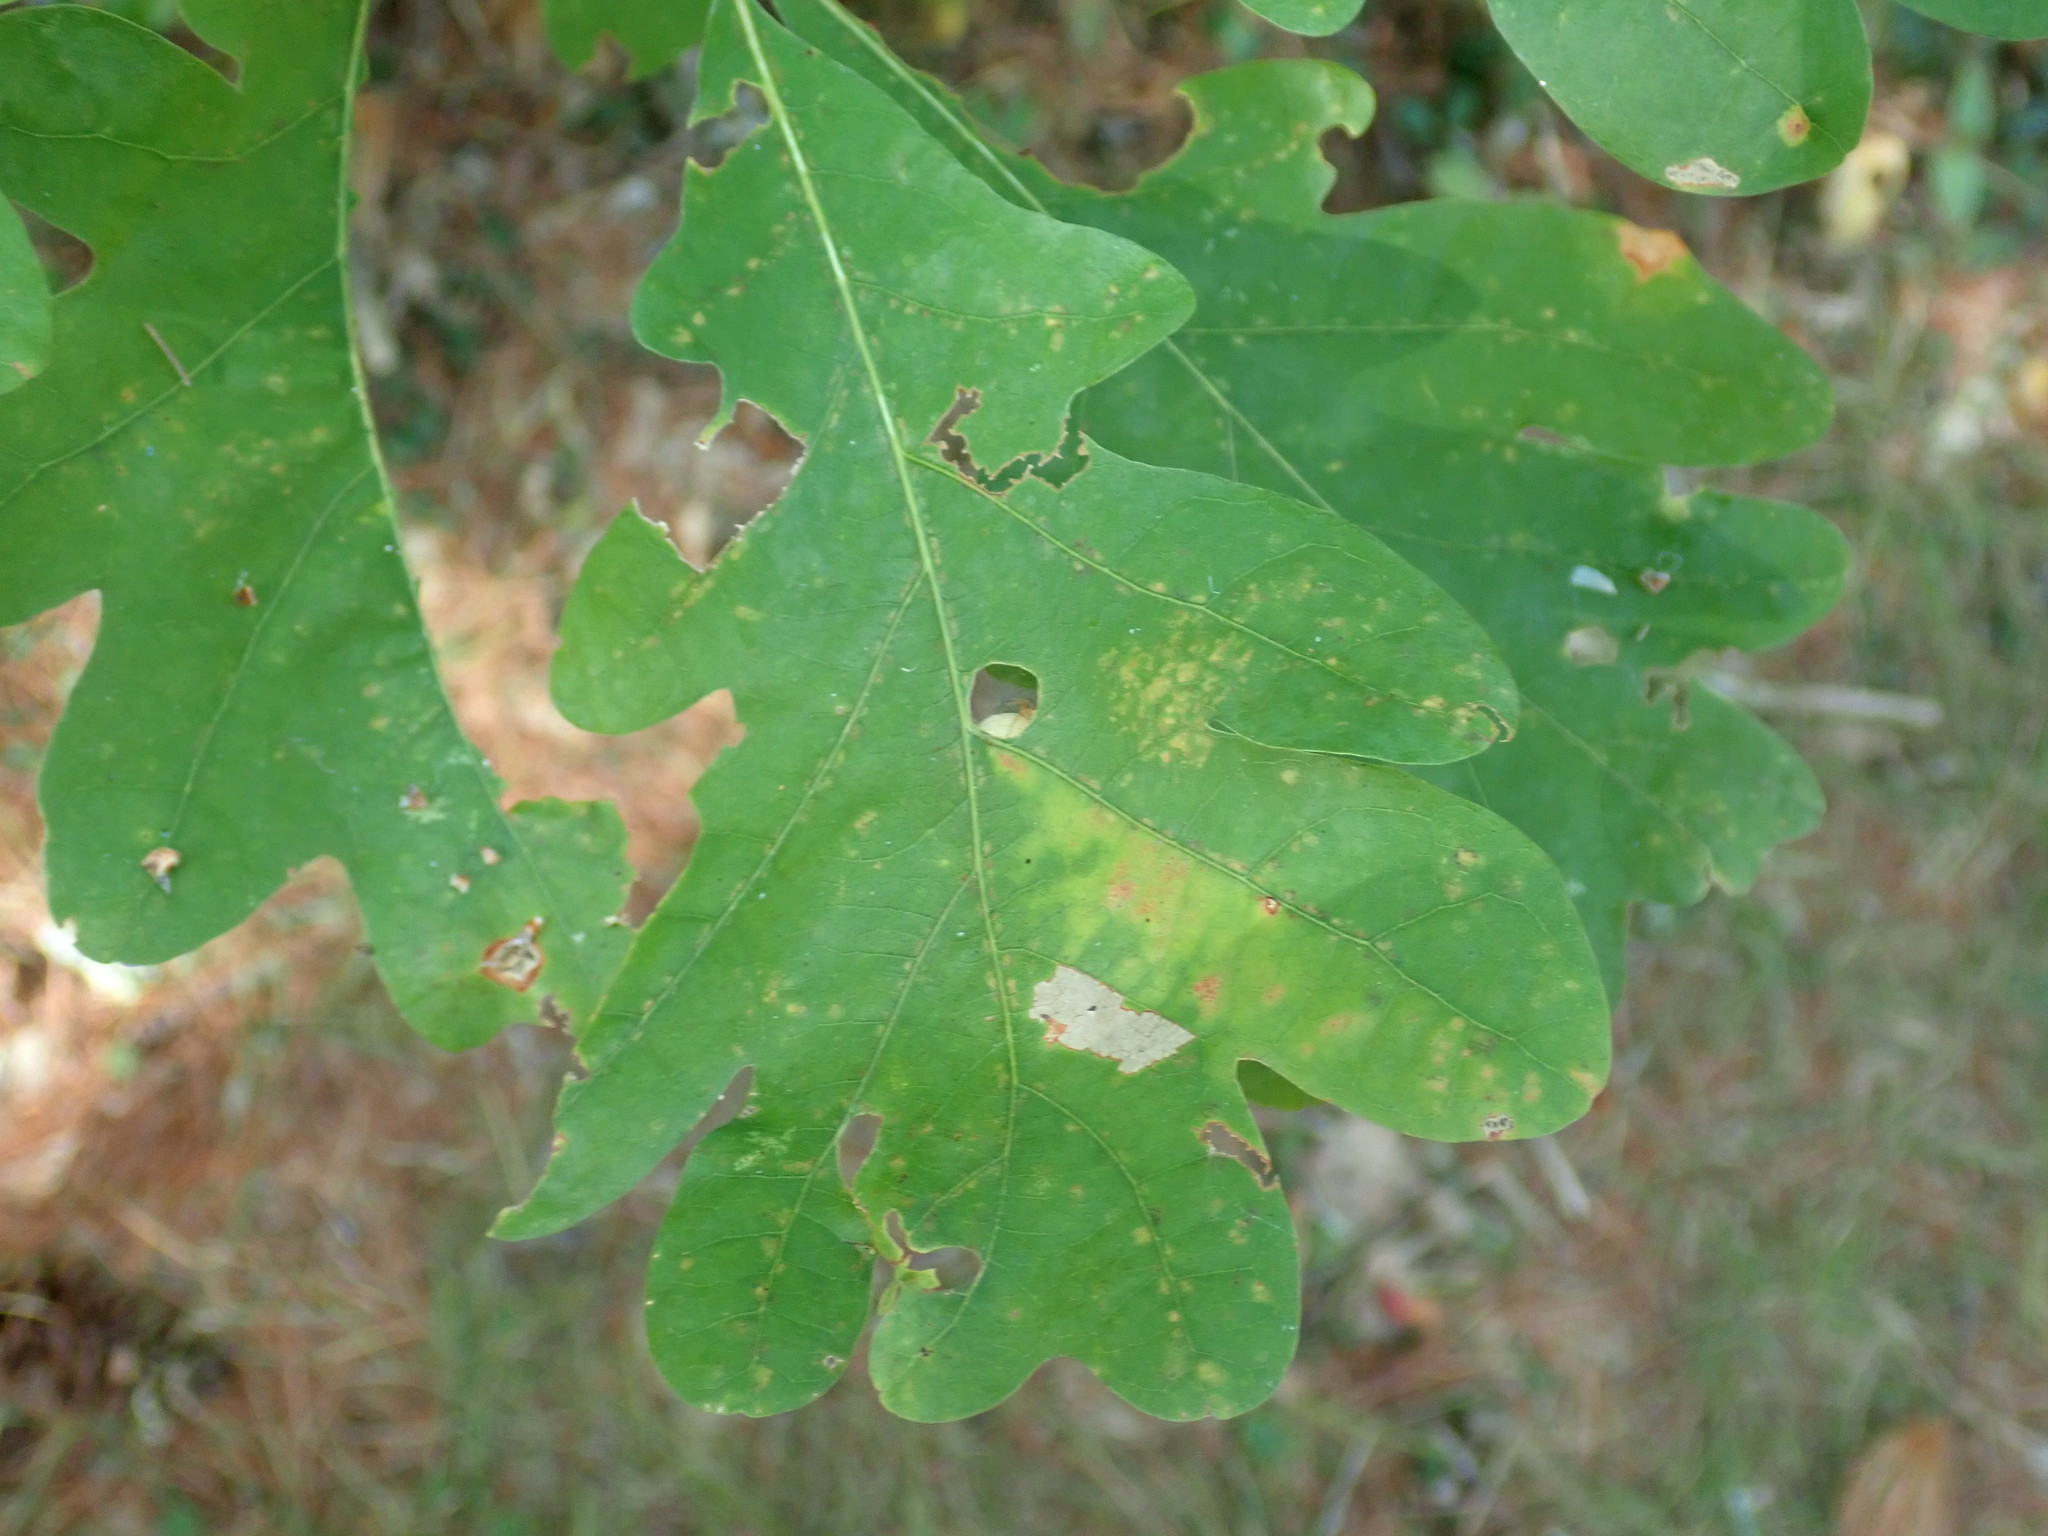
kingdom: Animalia
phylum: Arthropoda
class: Insecta
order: Hymenoptera
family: Cynipidae
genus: Philonix
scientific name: Philonix fulvicollis
